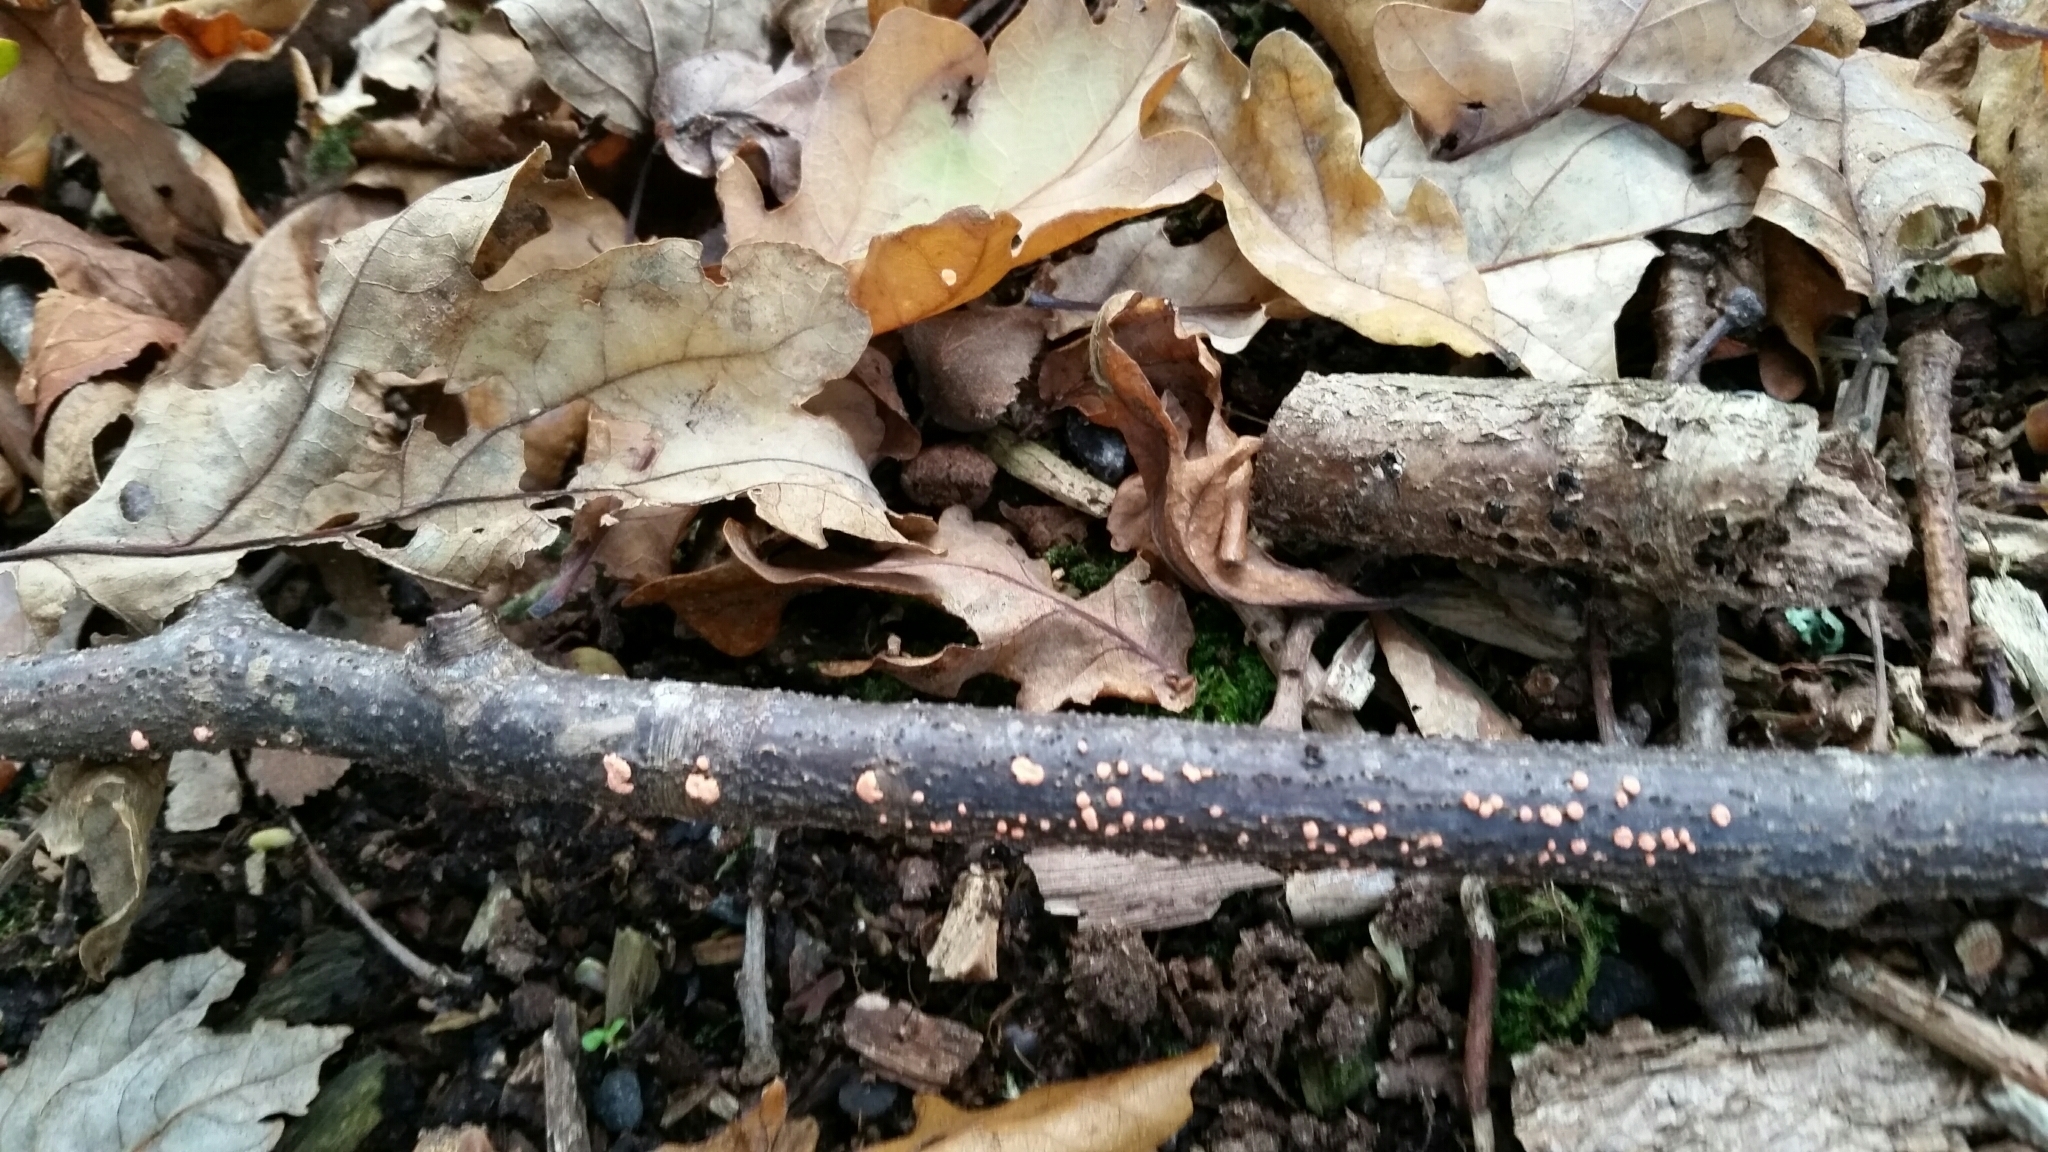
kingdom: Fungi
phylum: Ascomycota
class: Sordariomycetes
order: Hypocreales
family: Nectriaceae
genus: Nectria
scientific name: Nectria cinnabarina
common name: Coral spot
